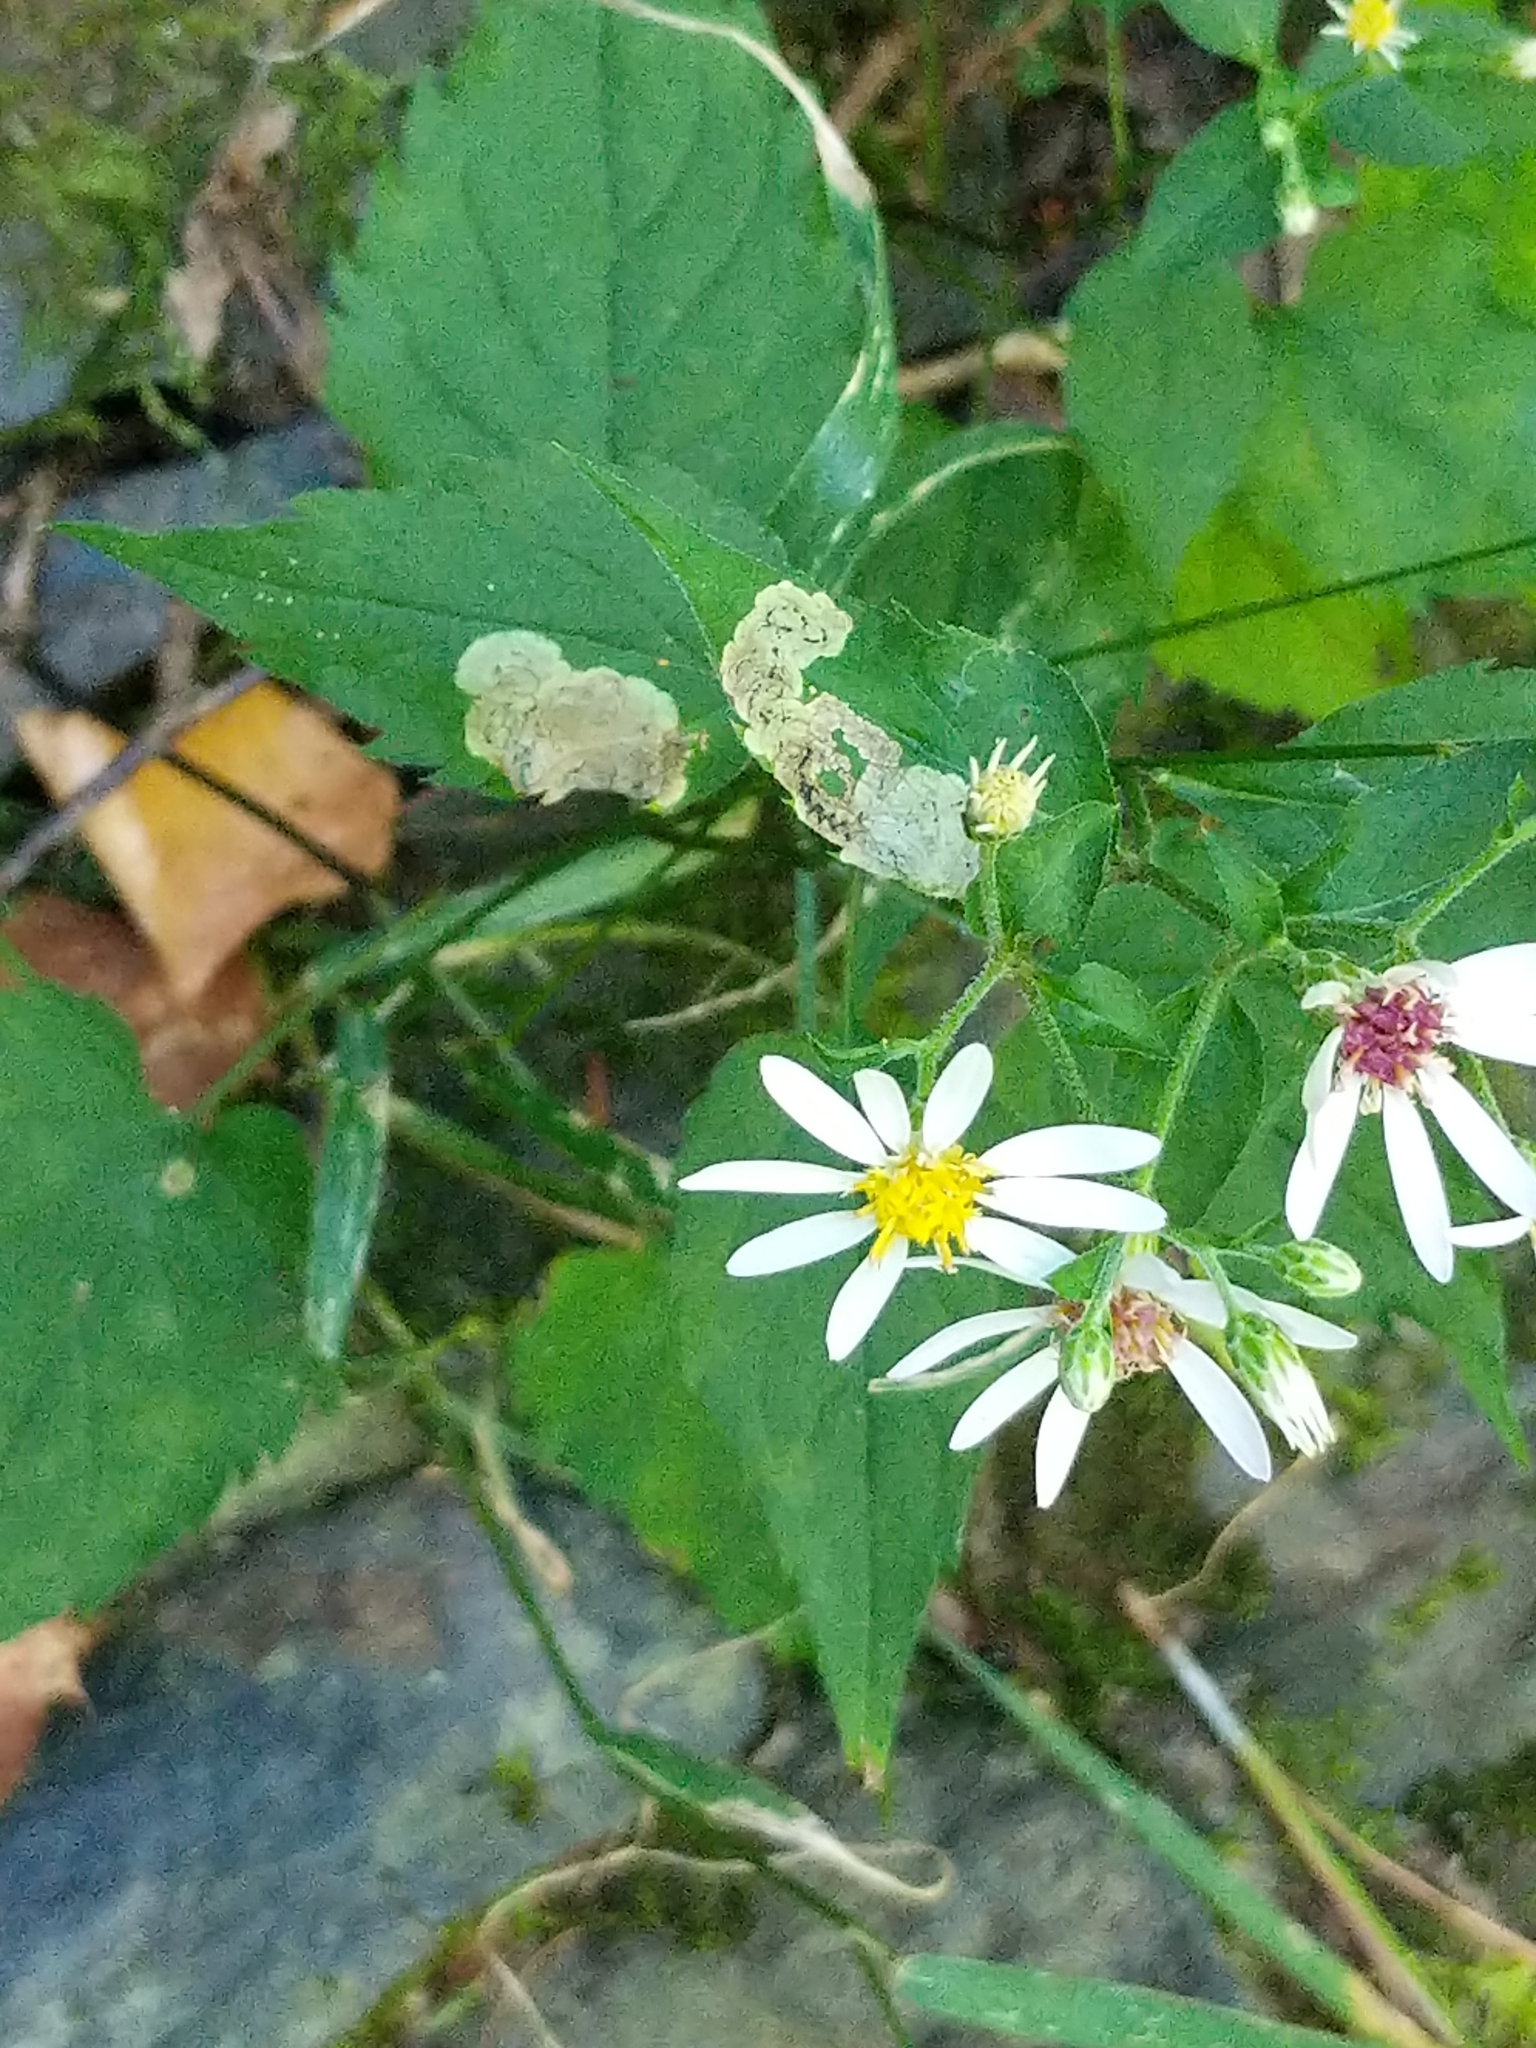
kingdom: Plantae
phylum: Tracheophyta
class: Magnoliopsida
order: Asterales
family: Asteraceae
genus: Eurybia
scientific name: Eurybia divaricata
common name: White wood aster
